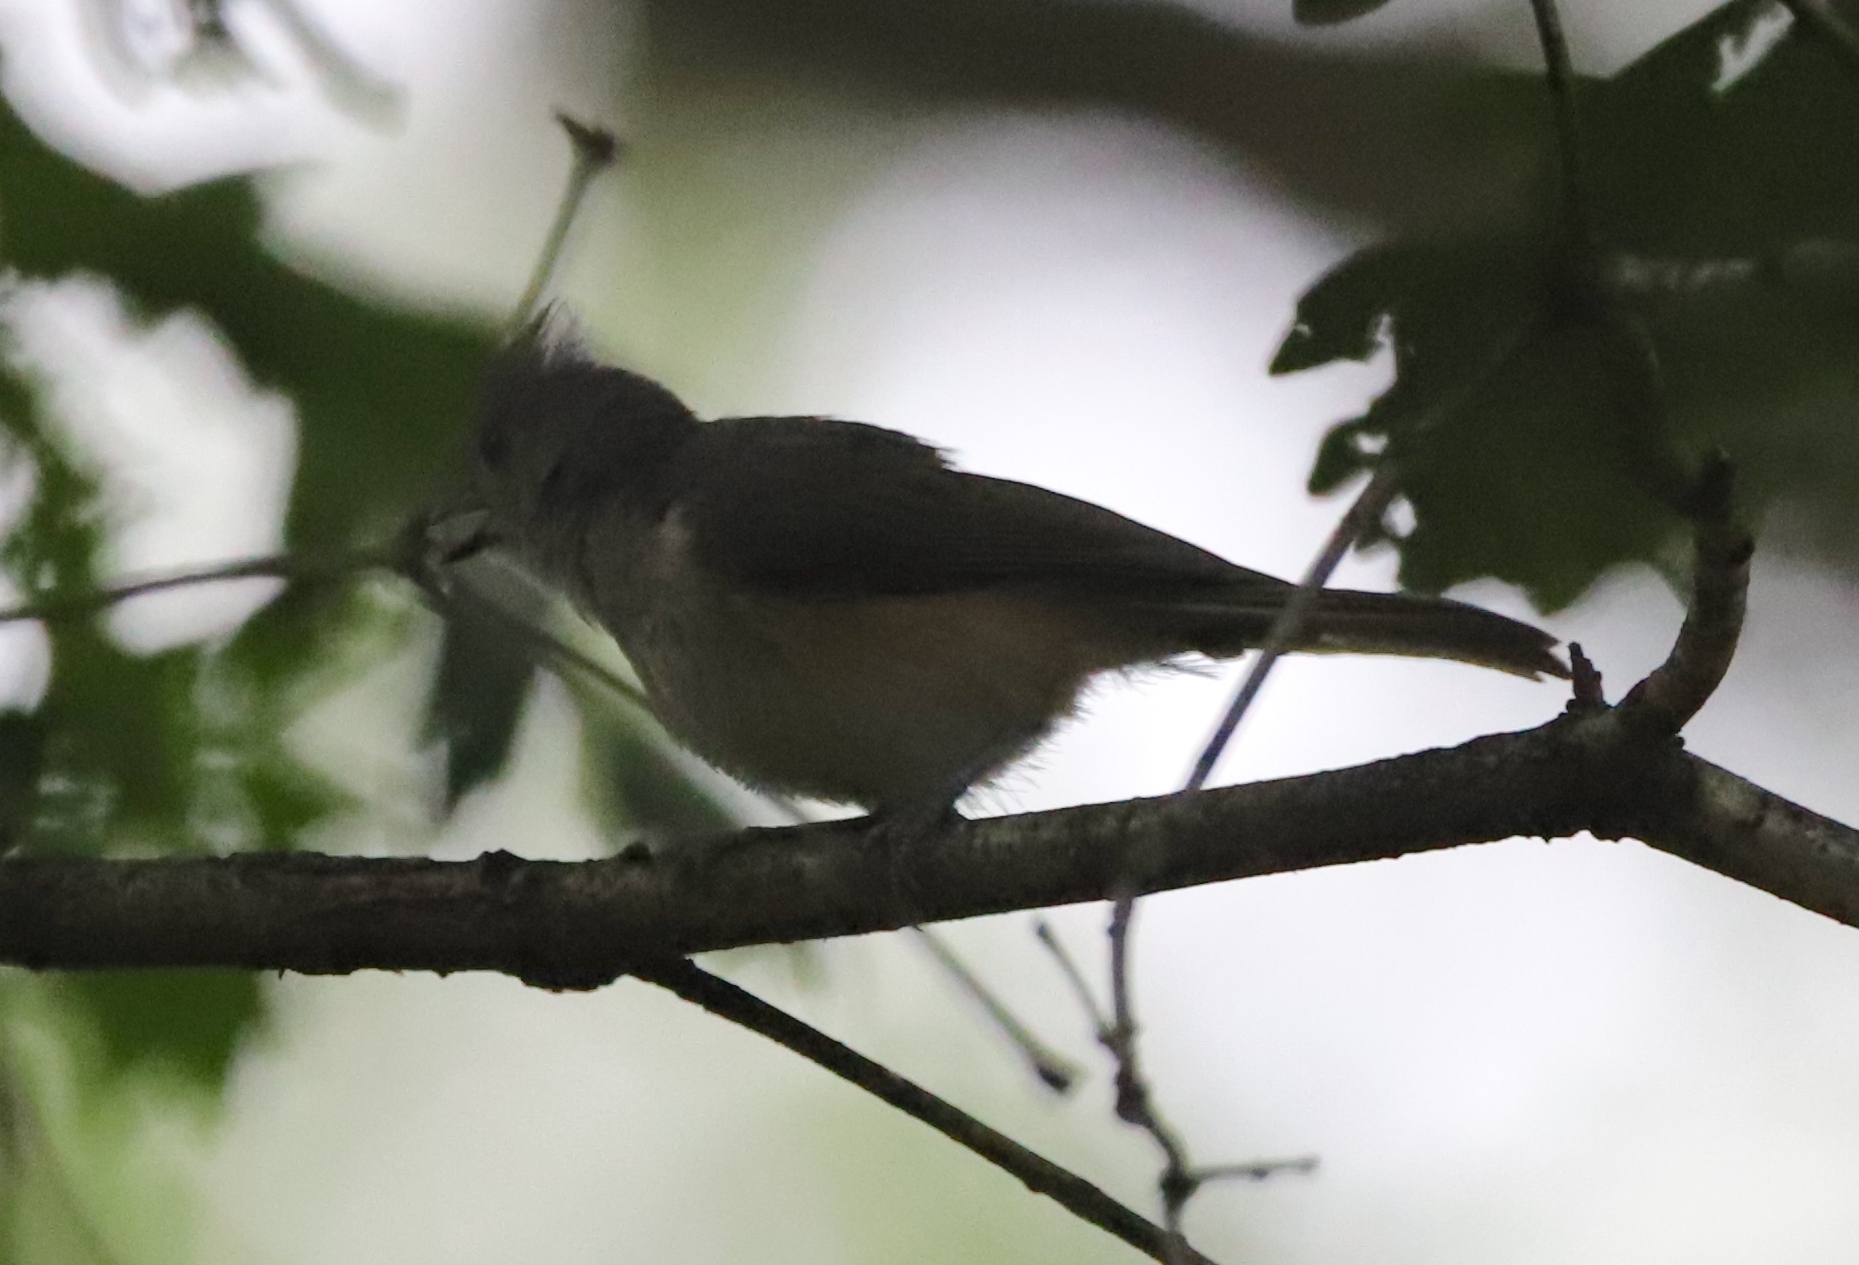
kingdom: Animalia
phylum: Chordata
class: Aves
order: Passeriformes
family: Paridae
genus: Baeolophus
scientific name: Baeolophus bicolor
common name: Tufted titmouse
